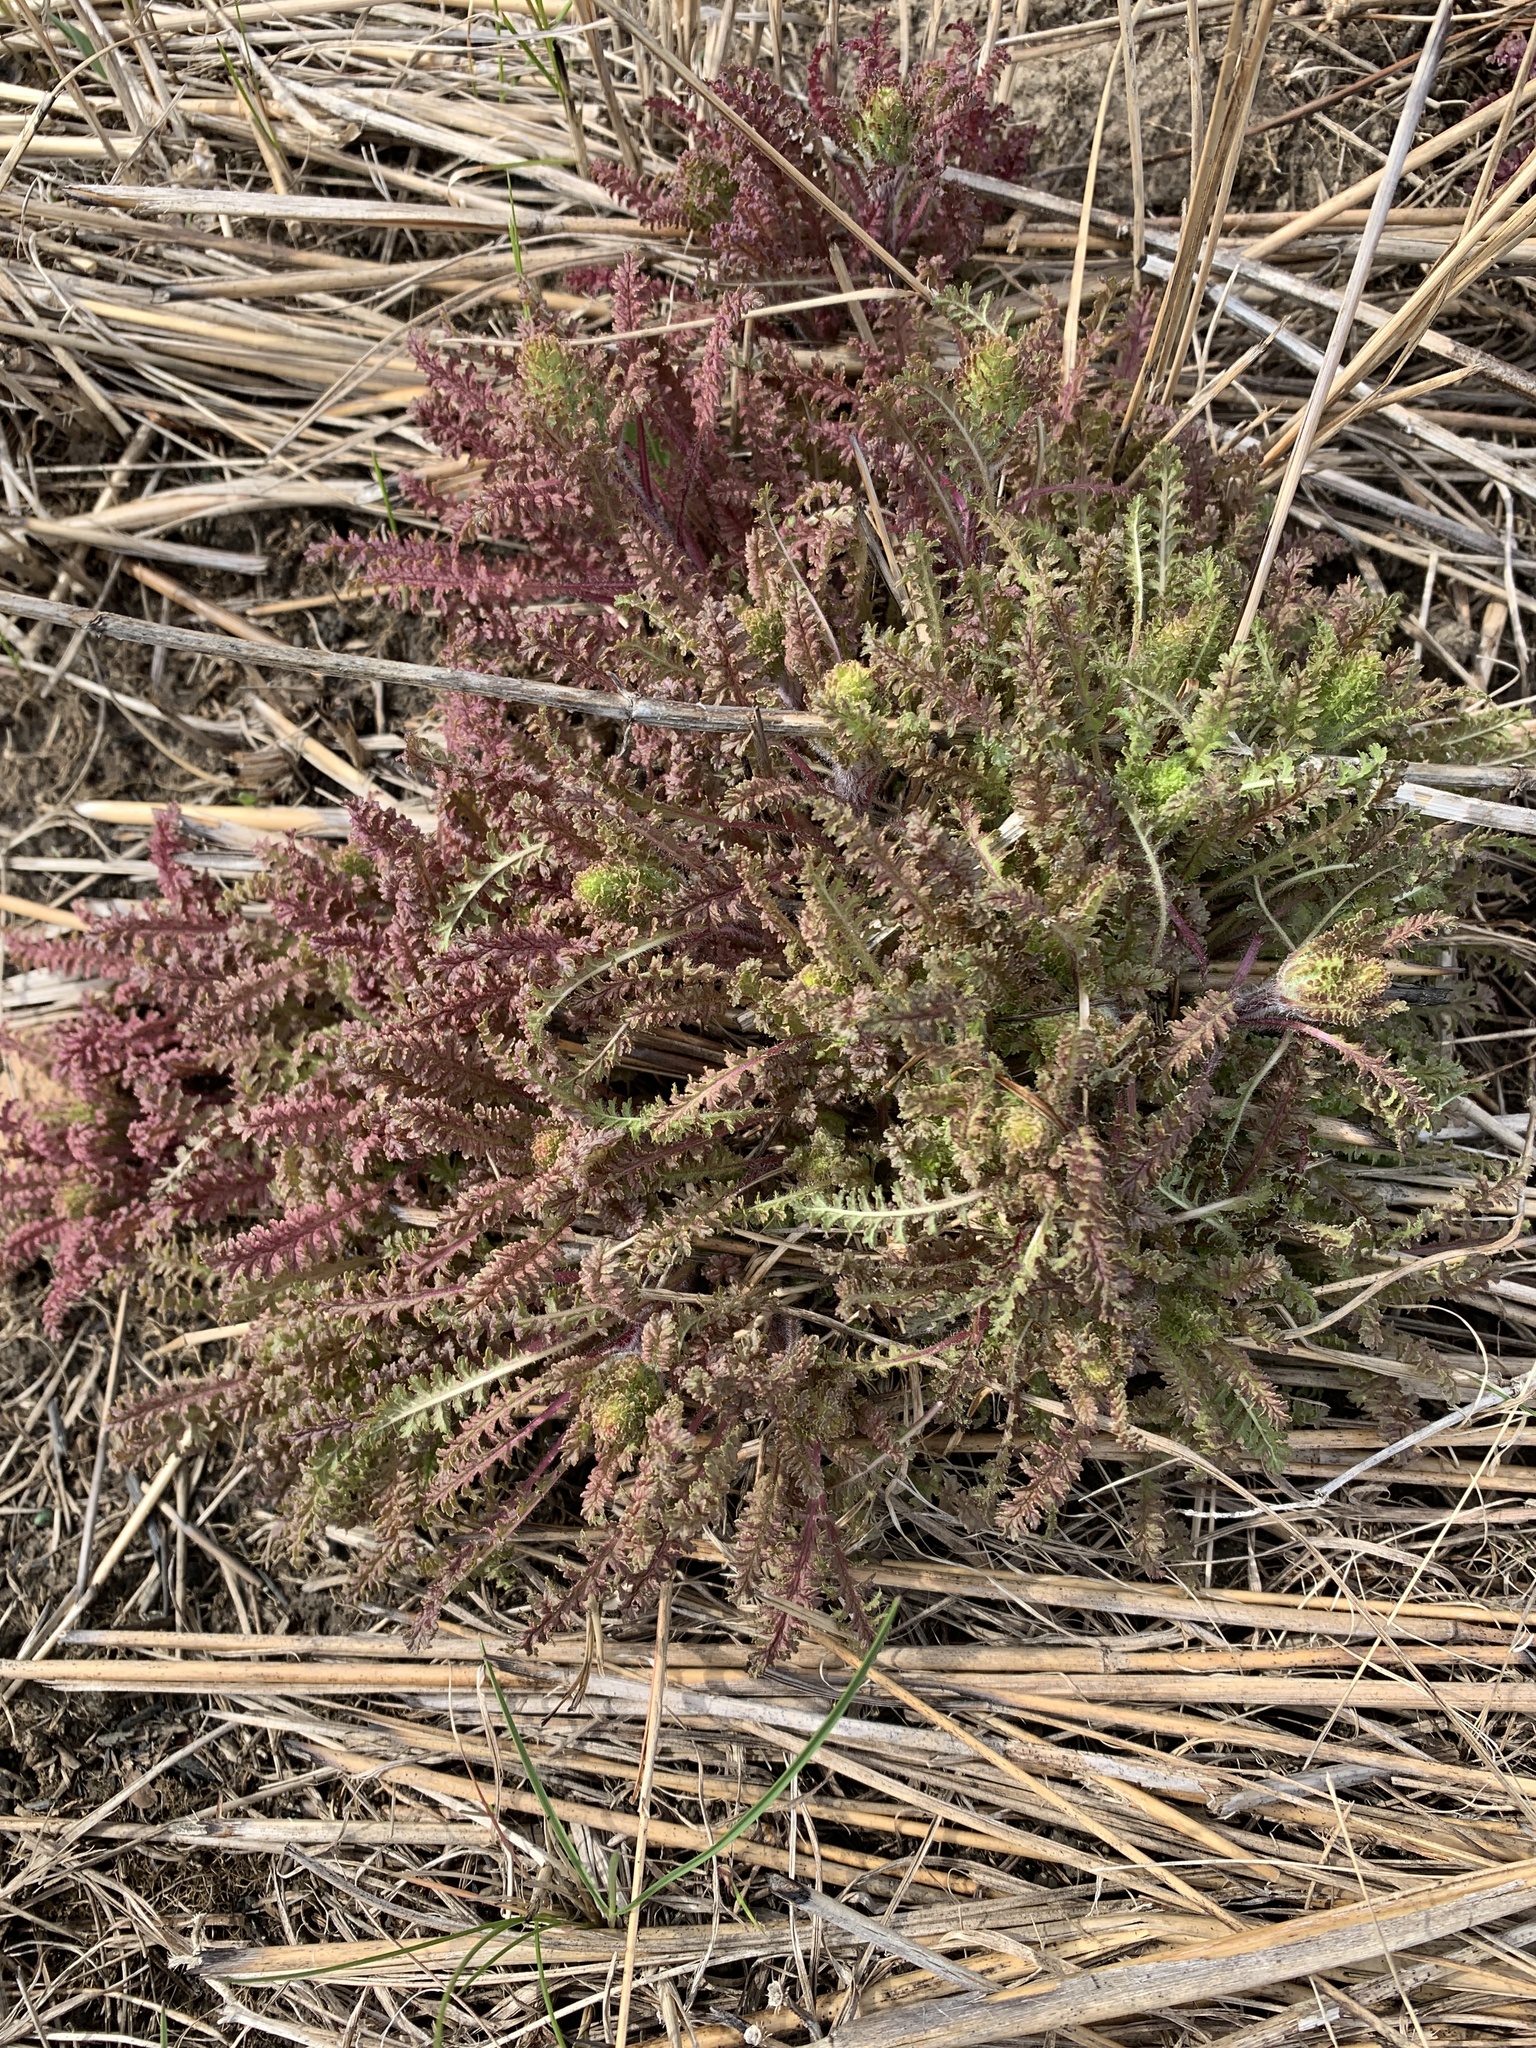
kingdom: Plantae
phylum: Tracheophyta
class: Magnoliopsida
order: Lamiales
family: Orobanchaceae
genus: Pedicularis
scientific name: Pedicularis canadensis
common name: Early lousewort
